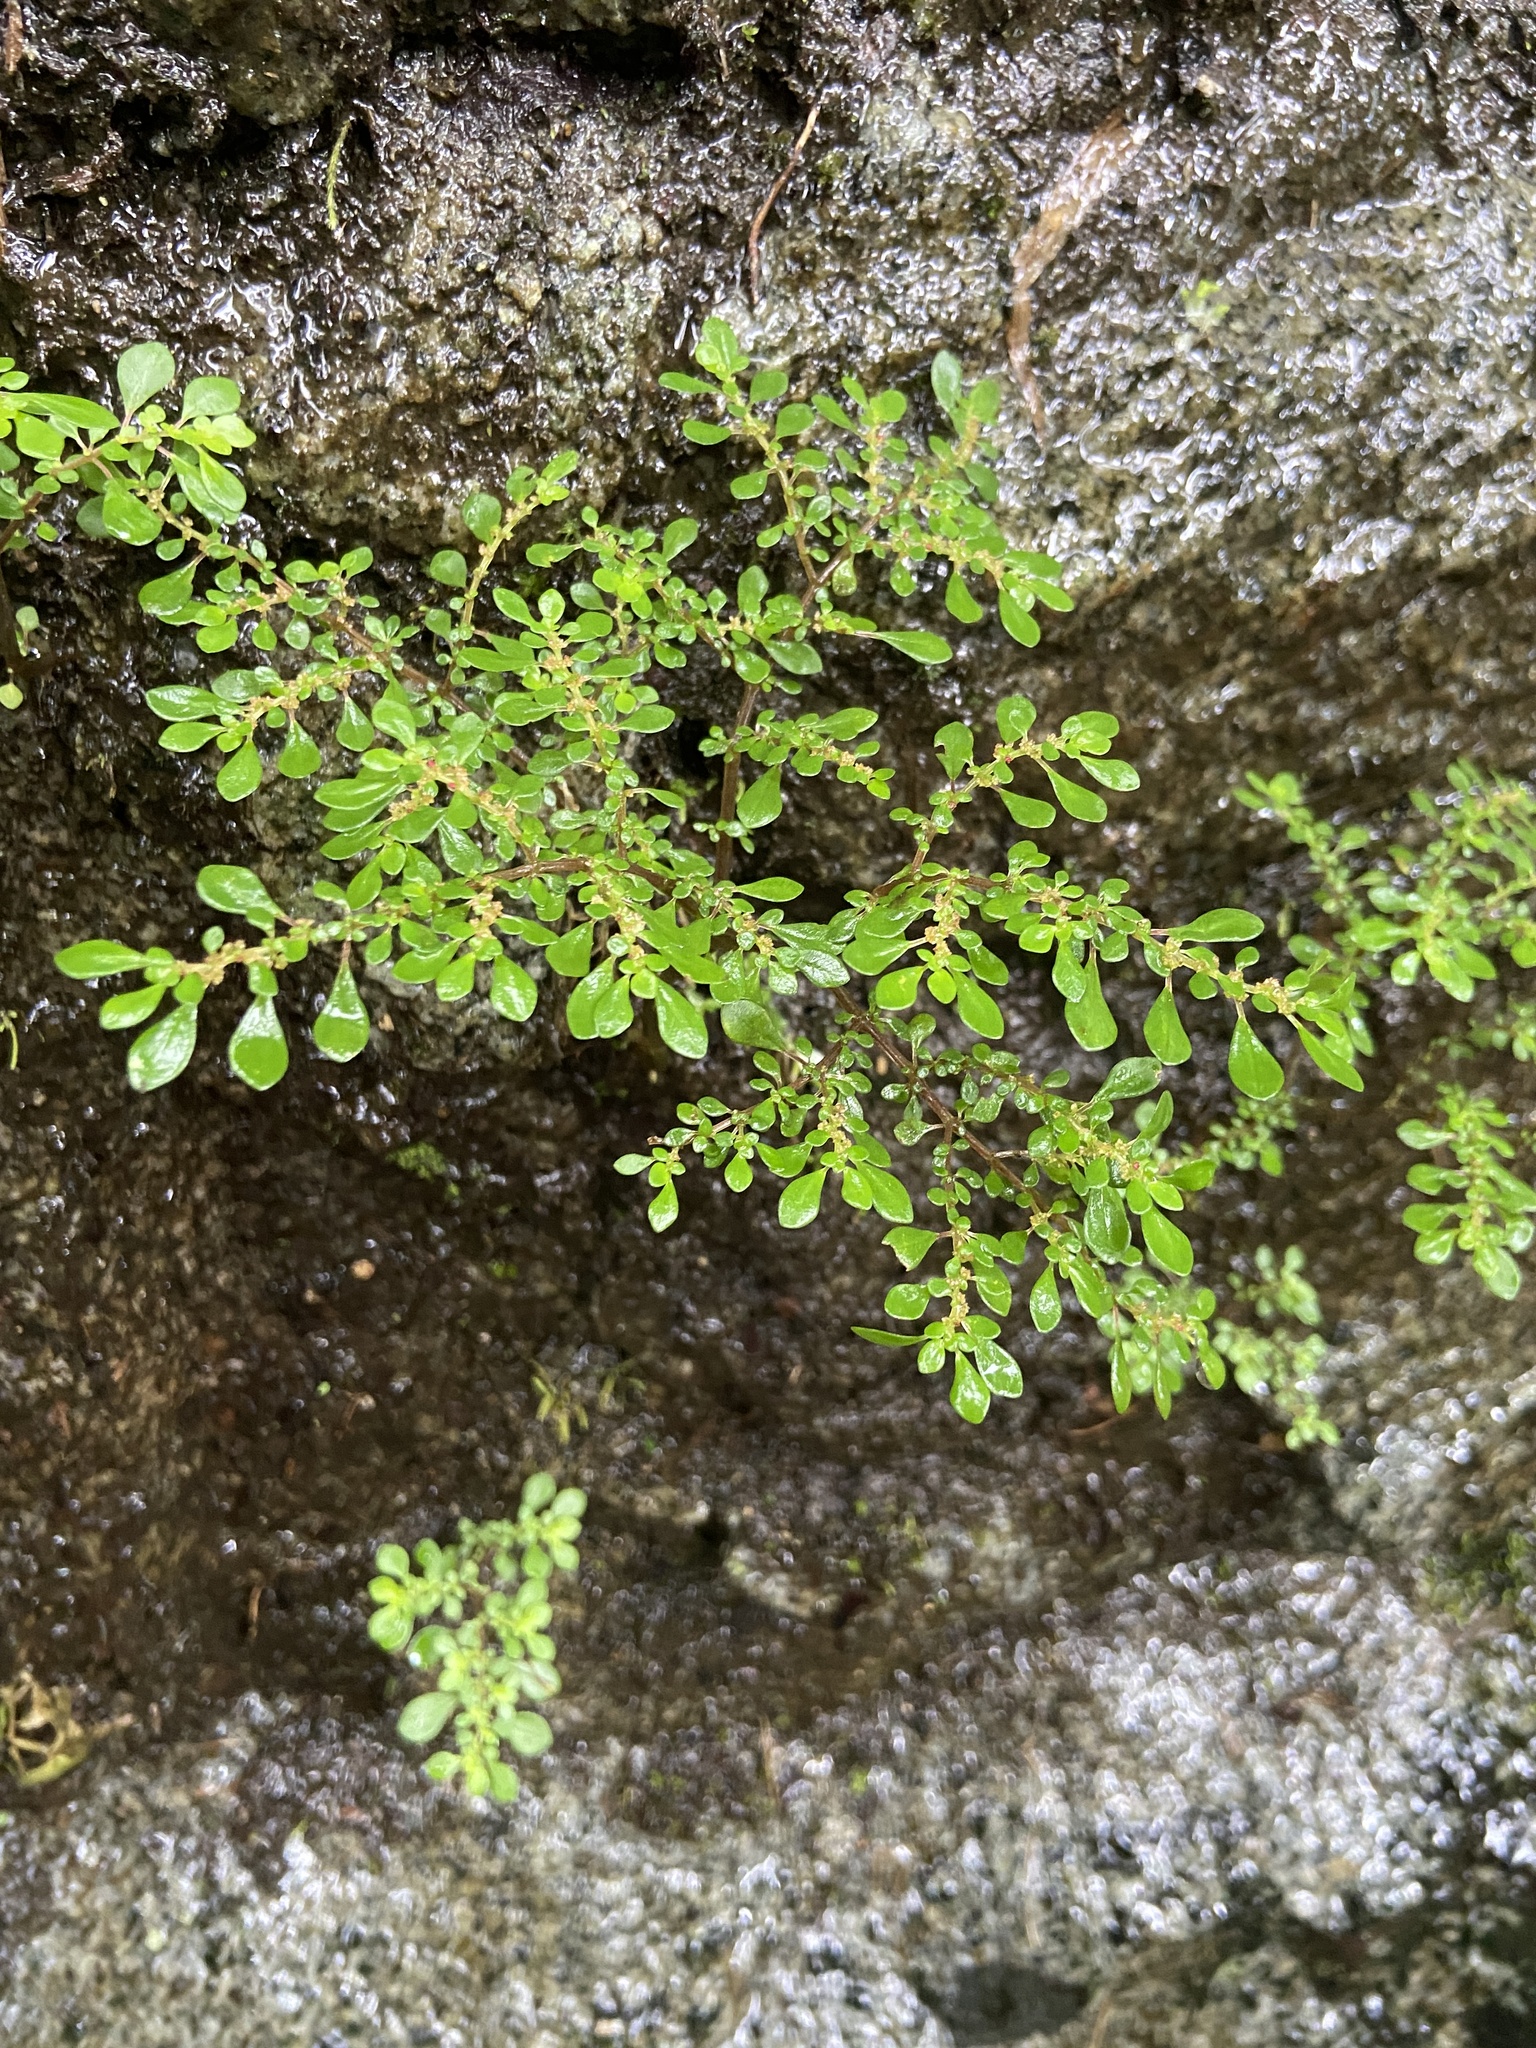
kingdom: Plantae
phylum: Tracheophyta
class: Magnoliopsida
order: Rosales
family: Urticaceae
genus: Pilea
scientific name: Pilea microphylla
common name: Artillery-plant
